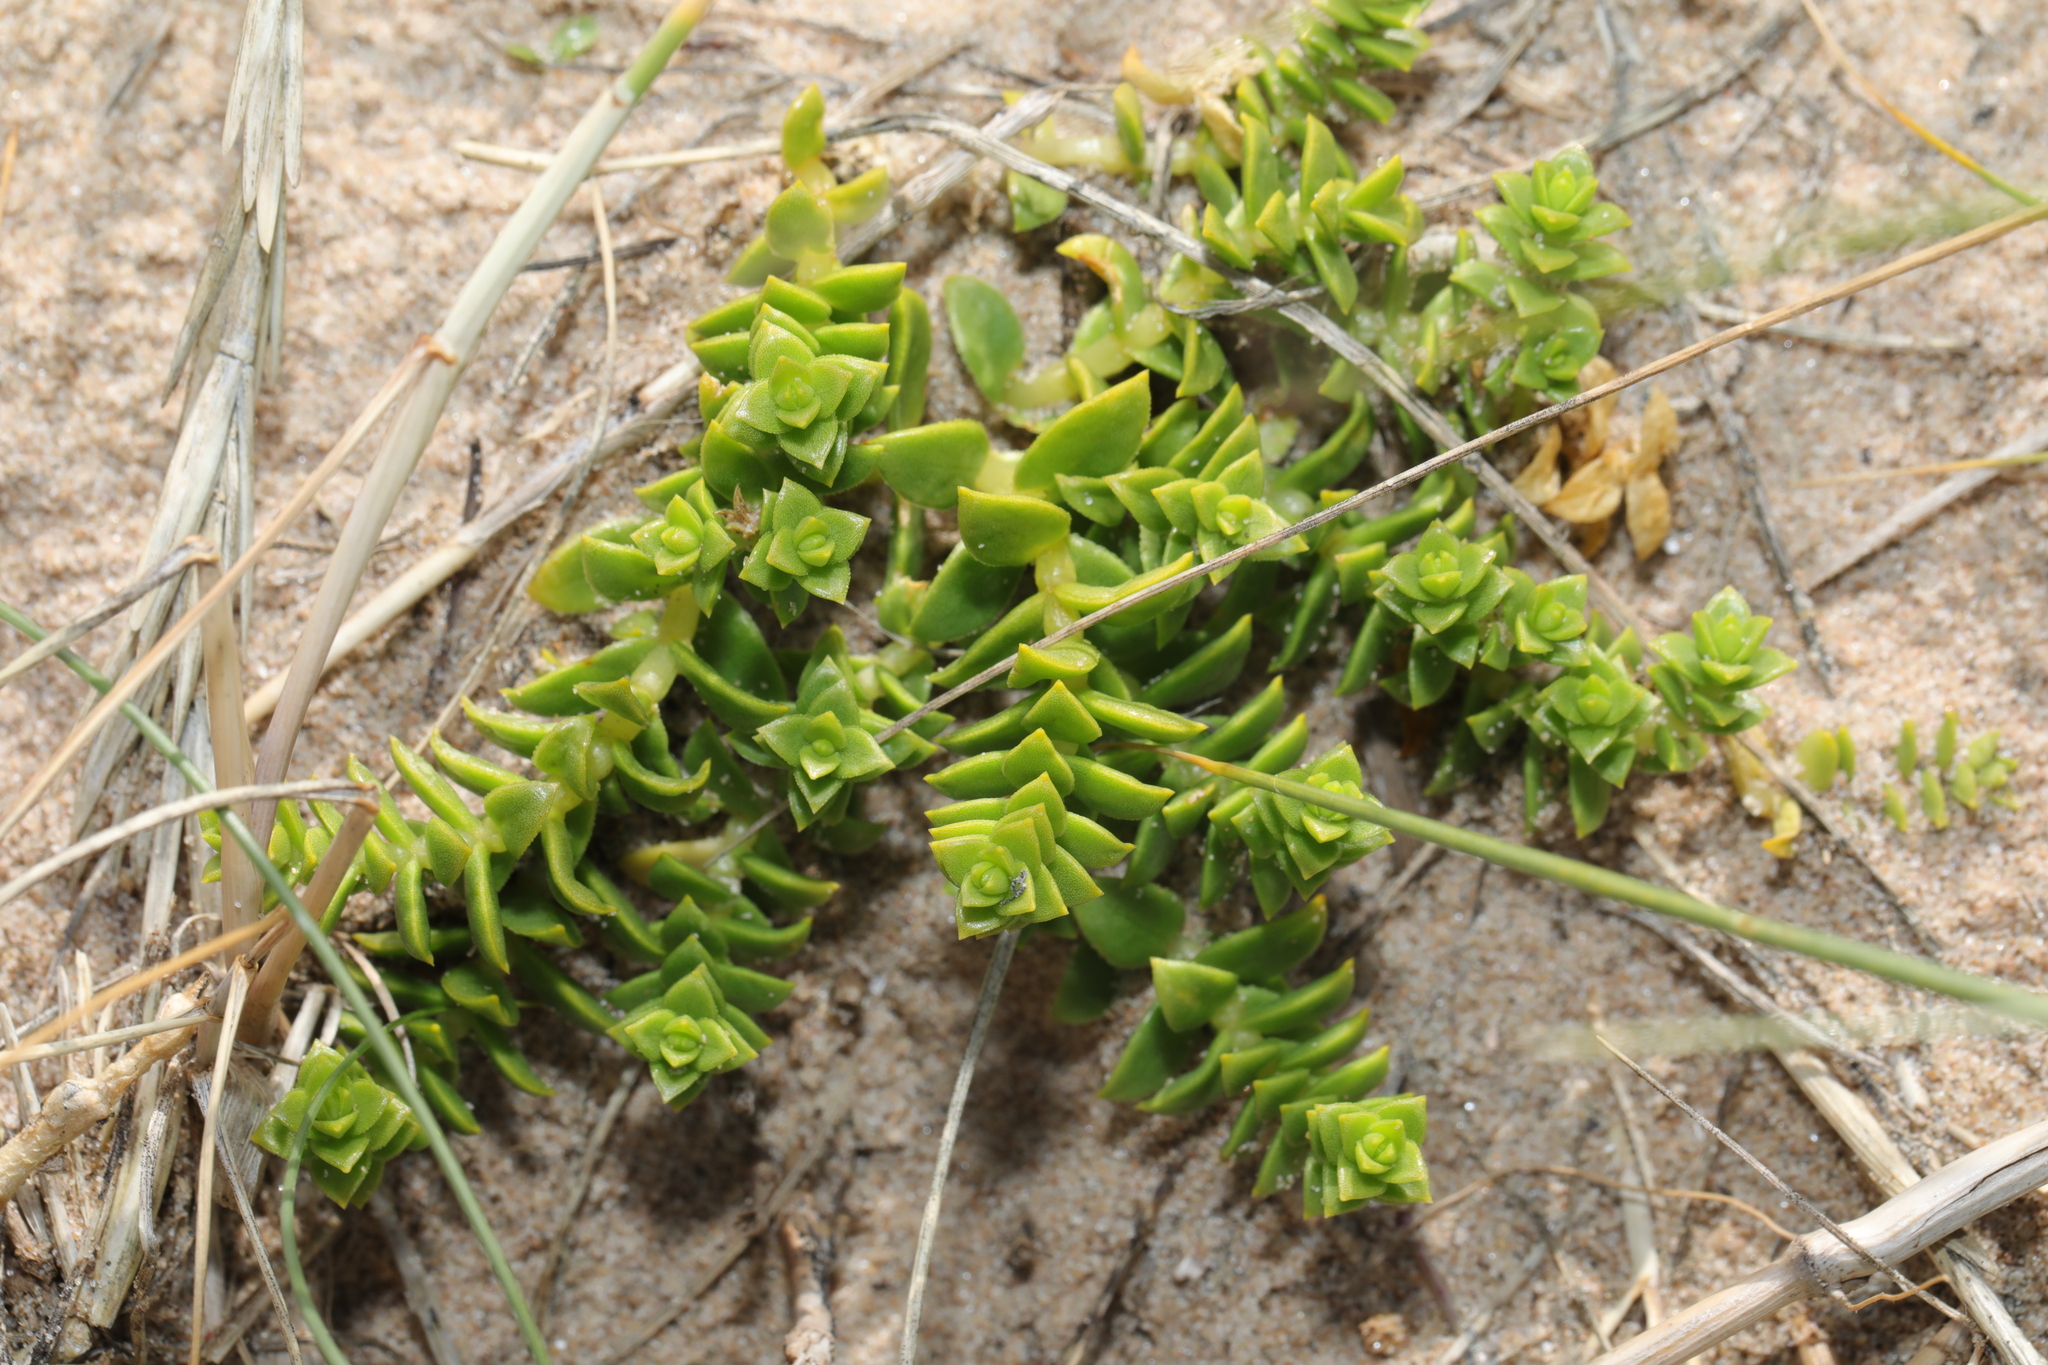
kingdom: Plantae
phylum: Tracheophyta
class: Magnoliopsida
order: Caryophyllales
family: Caryophyllaceae
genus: Honckenya
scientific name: Honckenya peploides
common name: Sea sandwort
